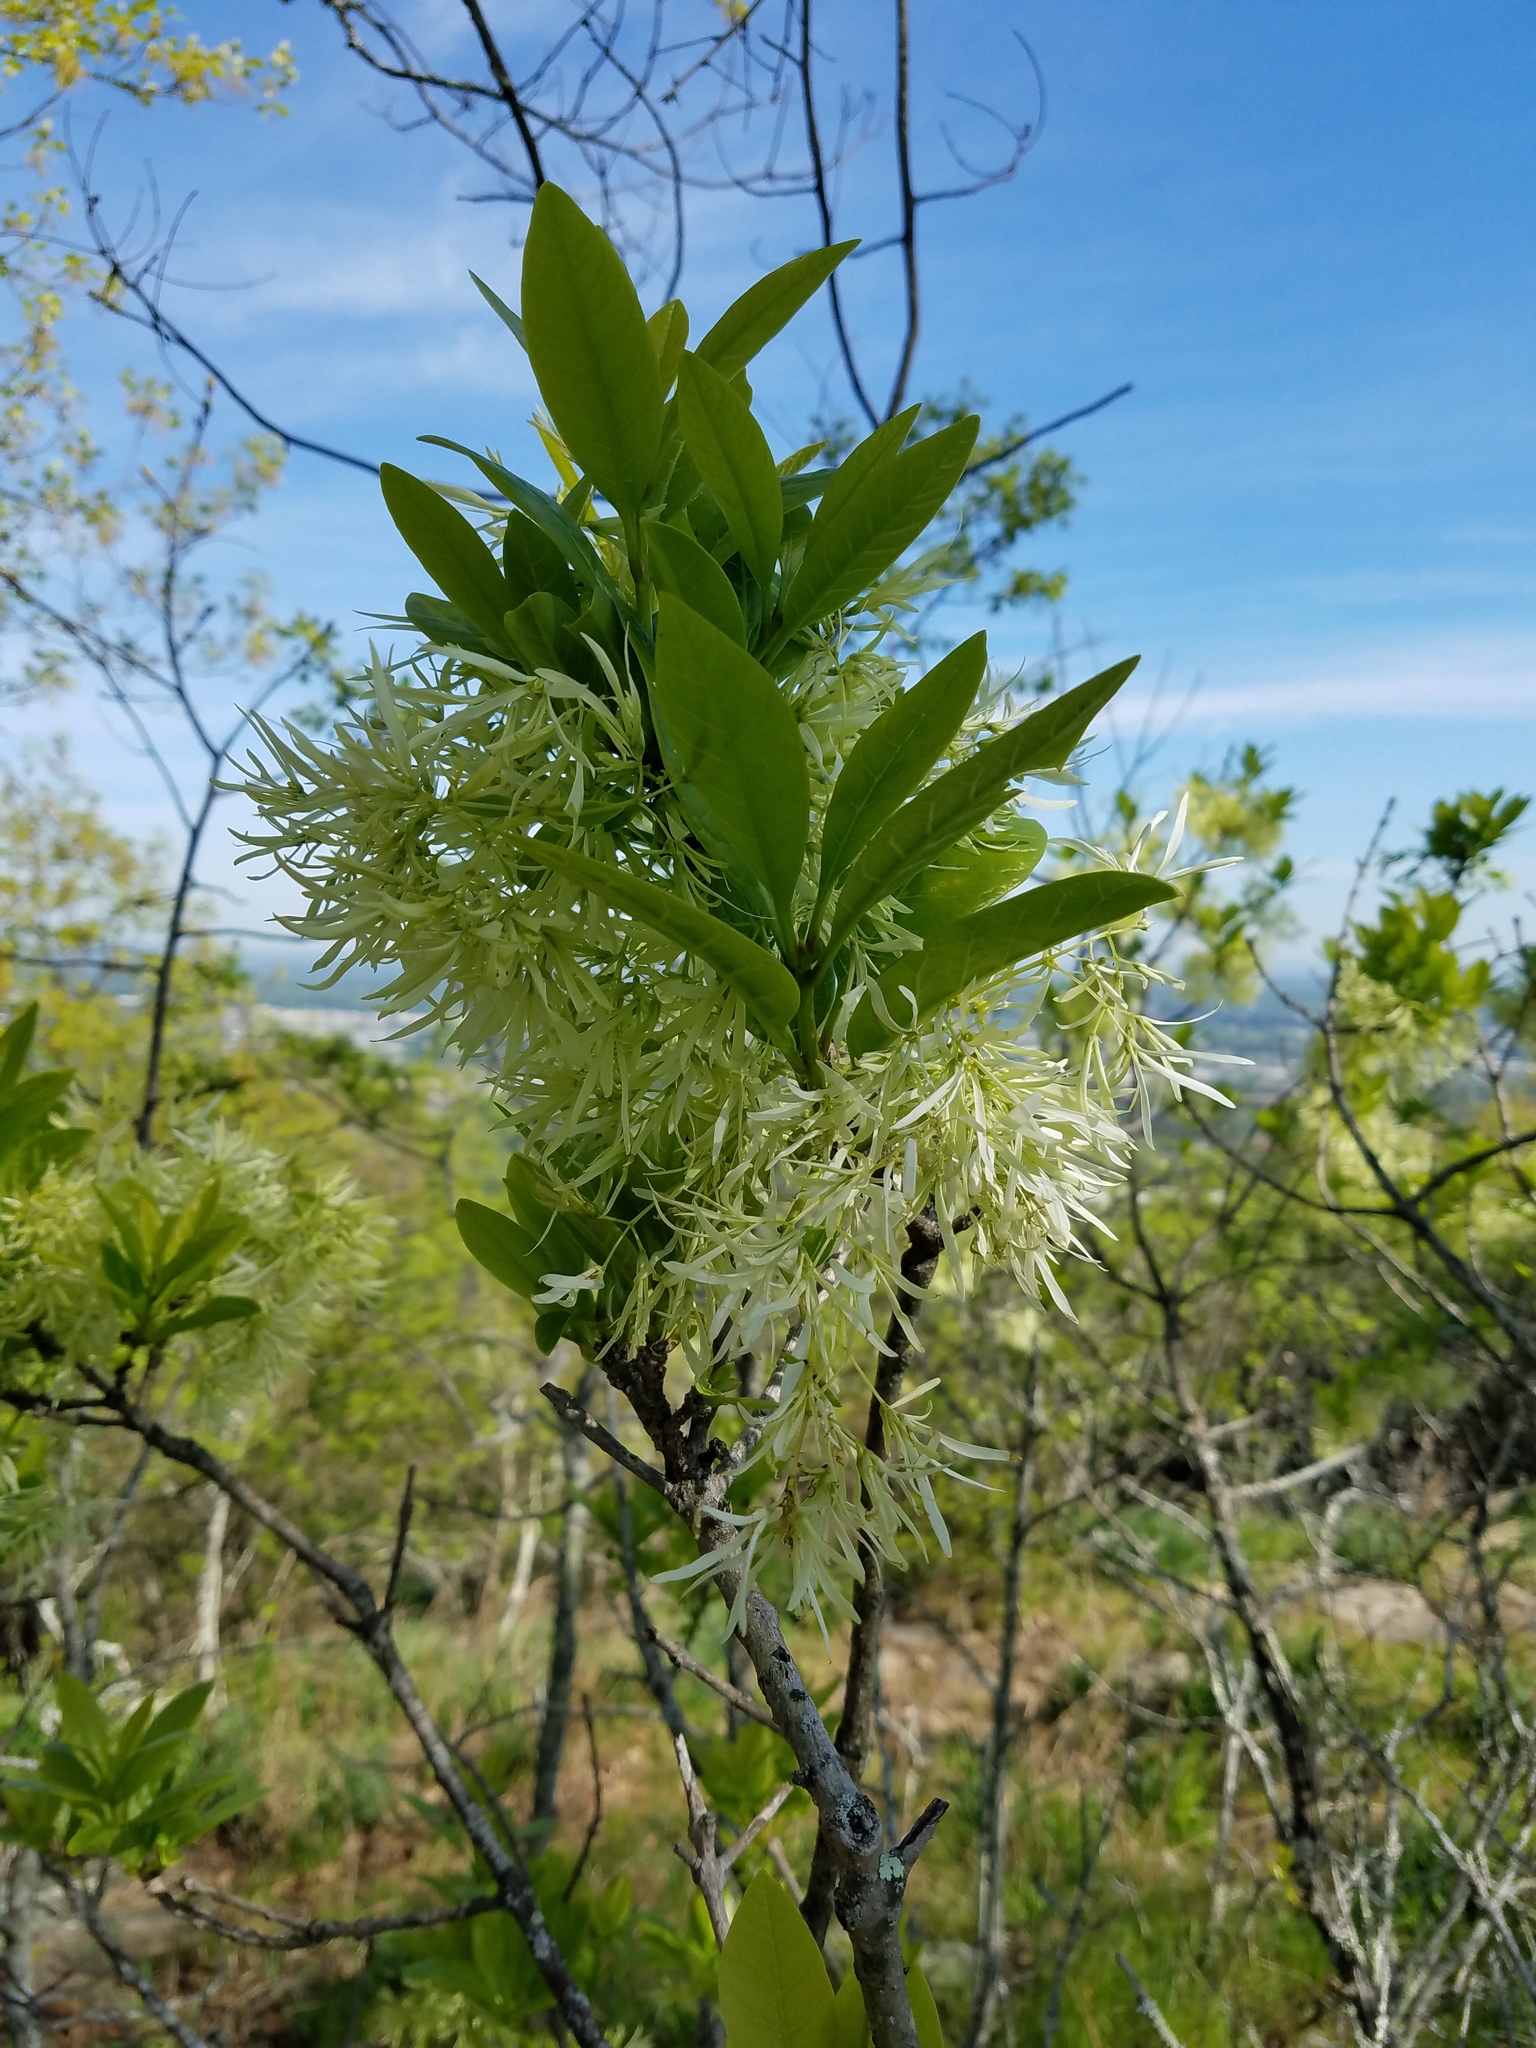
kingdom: Plantae
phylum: Tracheophyta
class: Magnoliopsida
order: Lamiales
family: Oleaceae
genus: Chionanthus
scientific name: Chionanthus virginicus
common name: American fringetree
